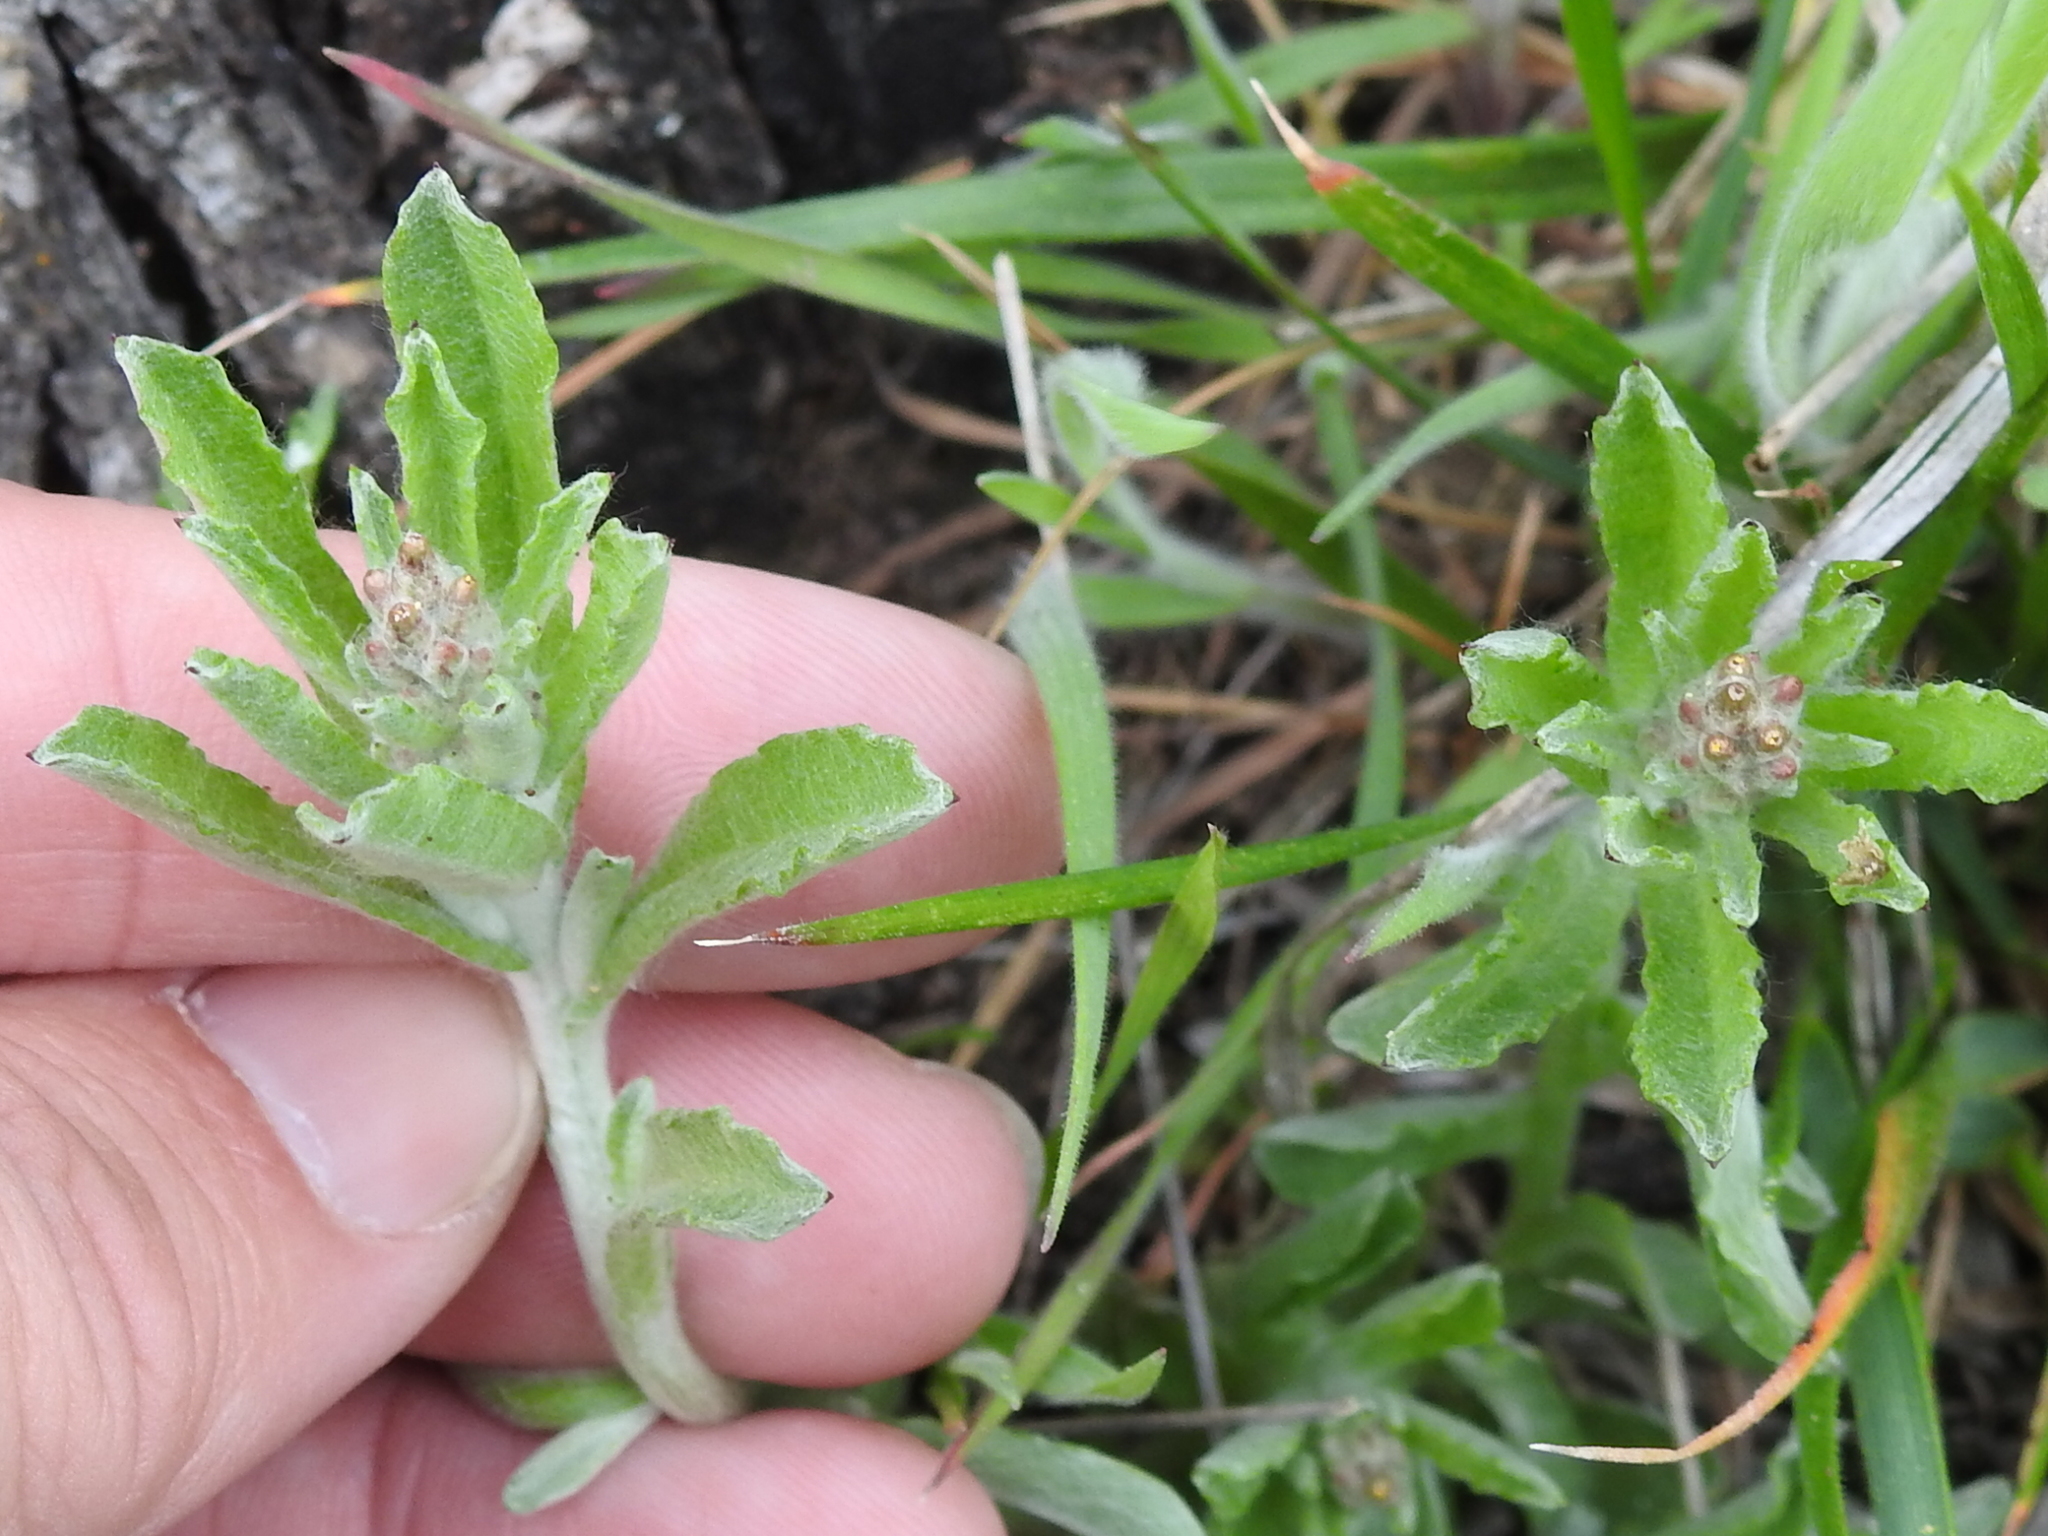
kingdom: Plantae
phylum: Tracheophyta
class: Magnoliopsida
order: Asterales
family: Asteraceae
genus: Gamochaeta
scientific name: Gamochaeta pensylvanica
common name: Pennsylvania everlasting
